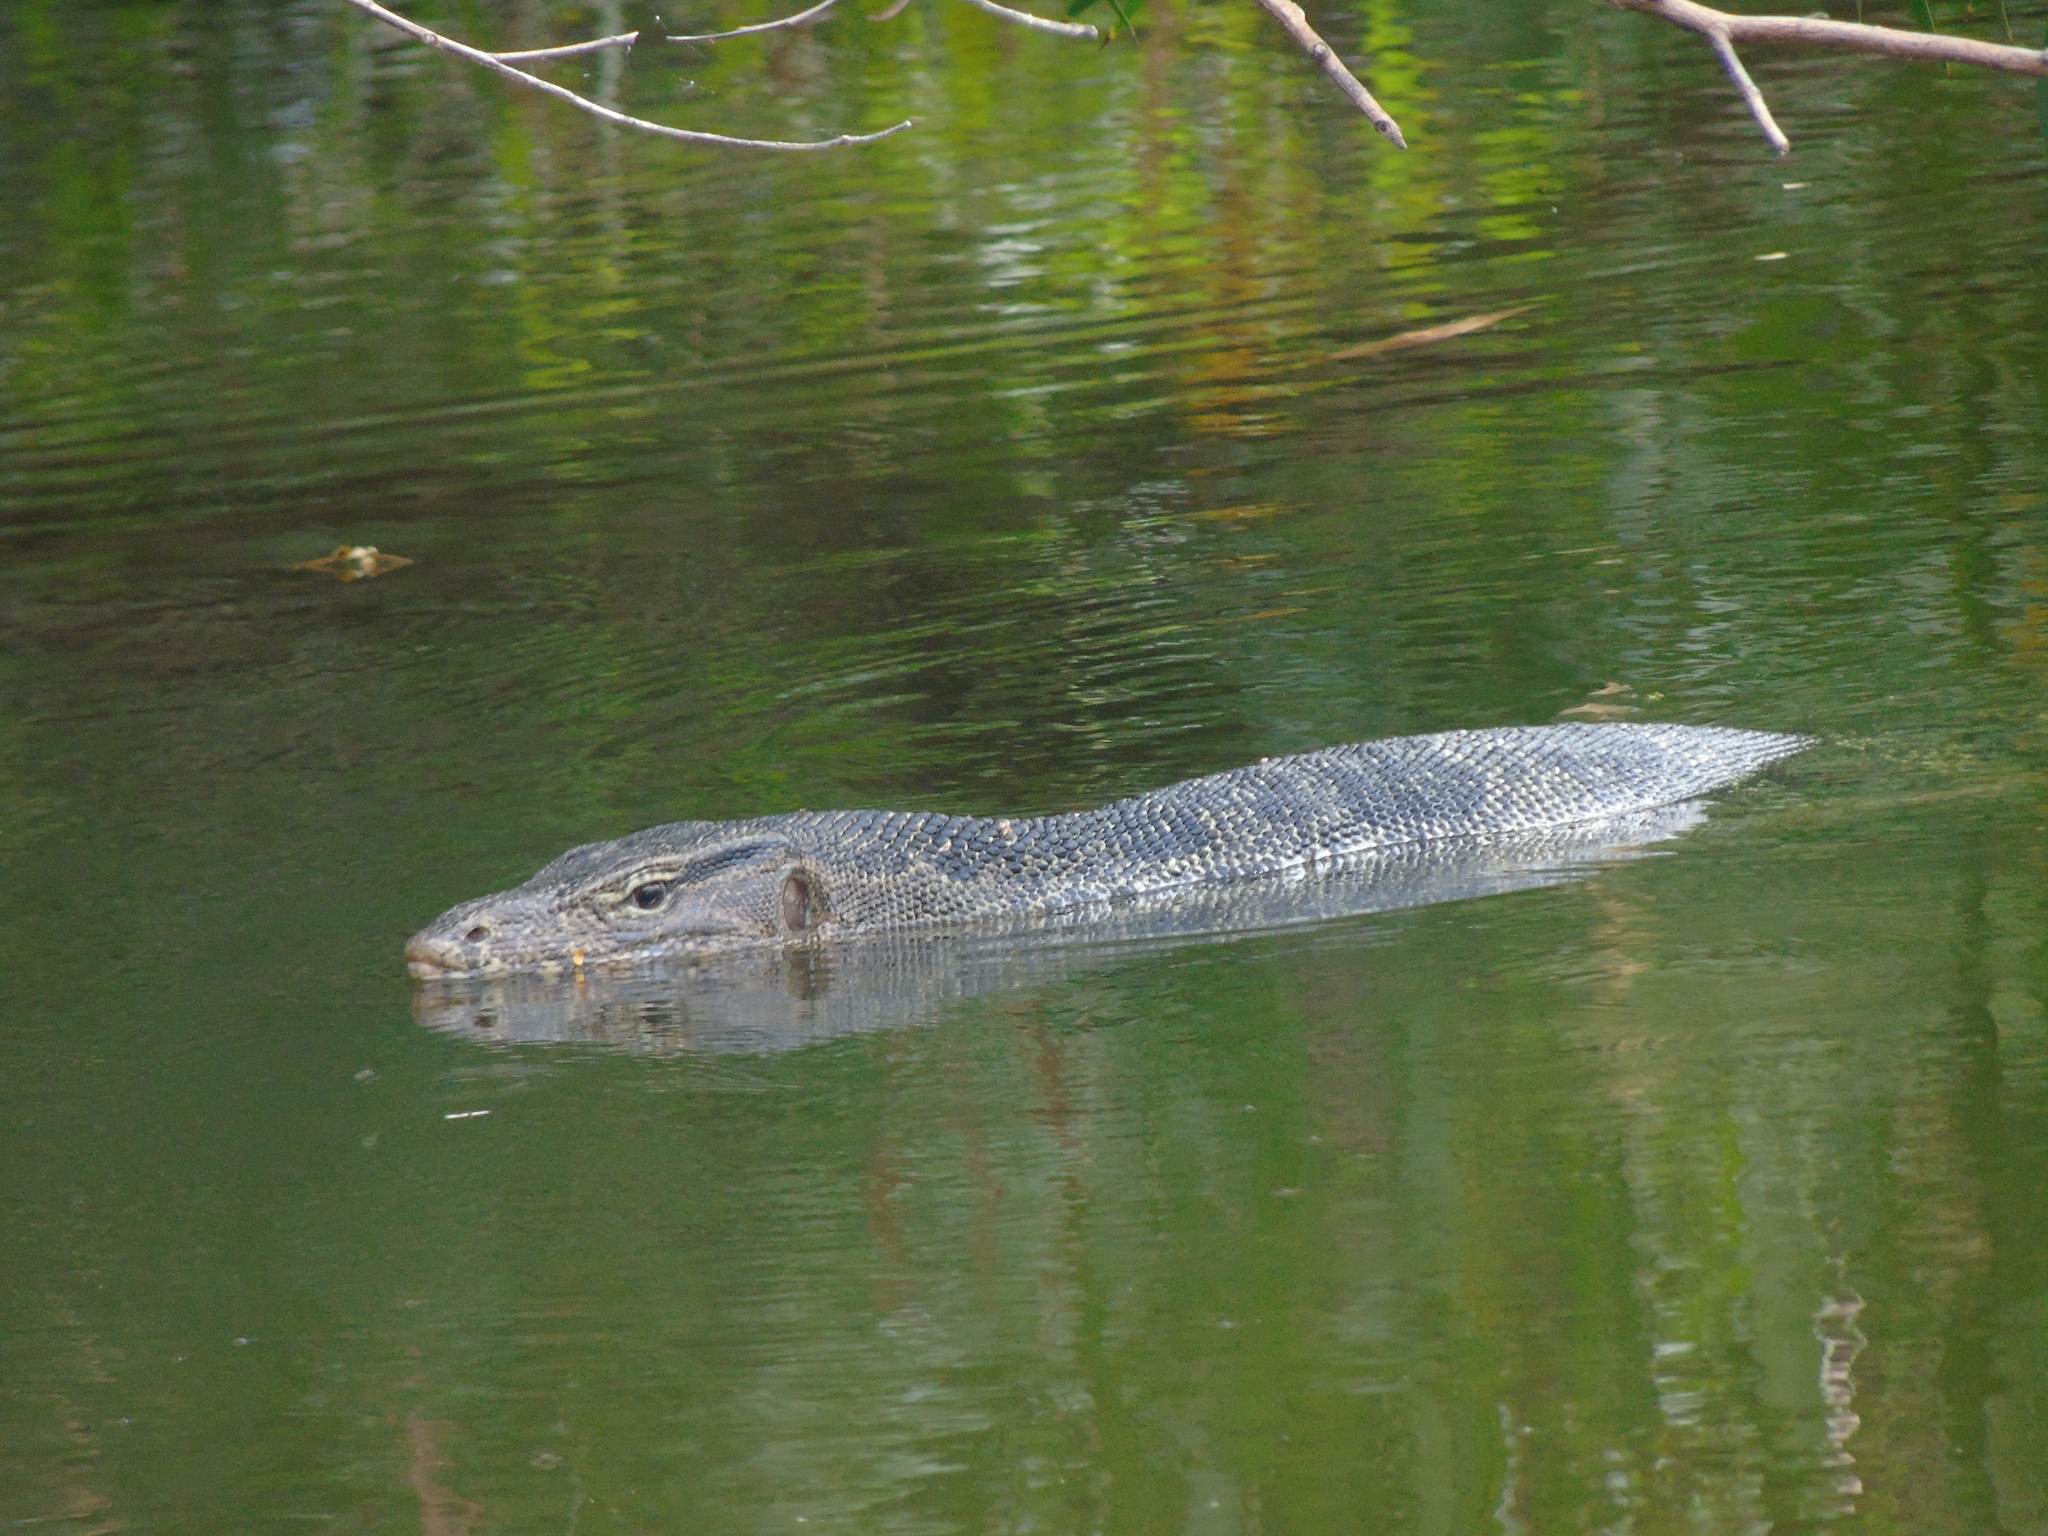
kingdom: Animalia
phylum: Chordata
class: Squamata
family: Varanidae
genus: Varanus
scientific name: Varanus salvator
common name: Common water monitor
